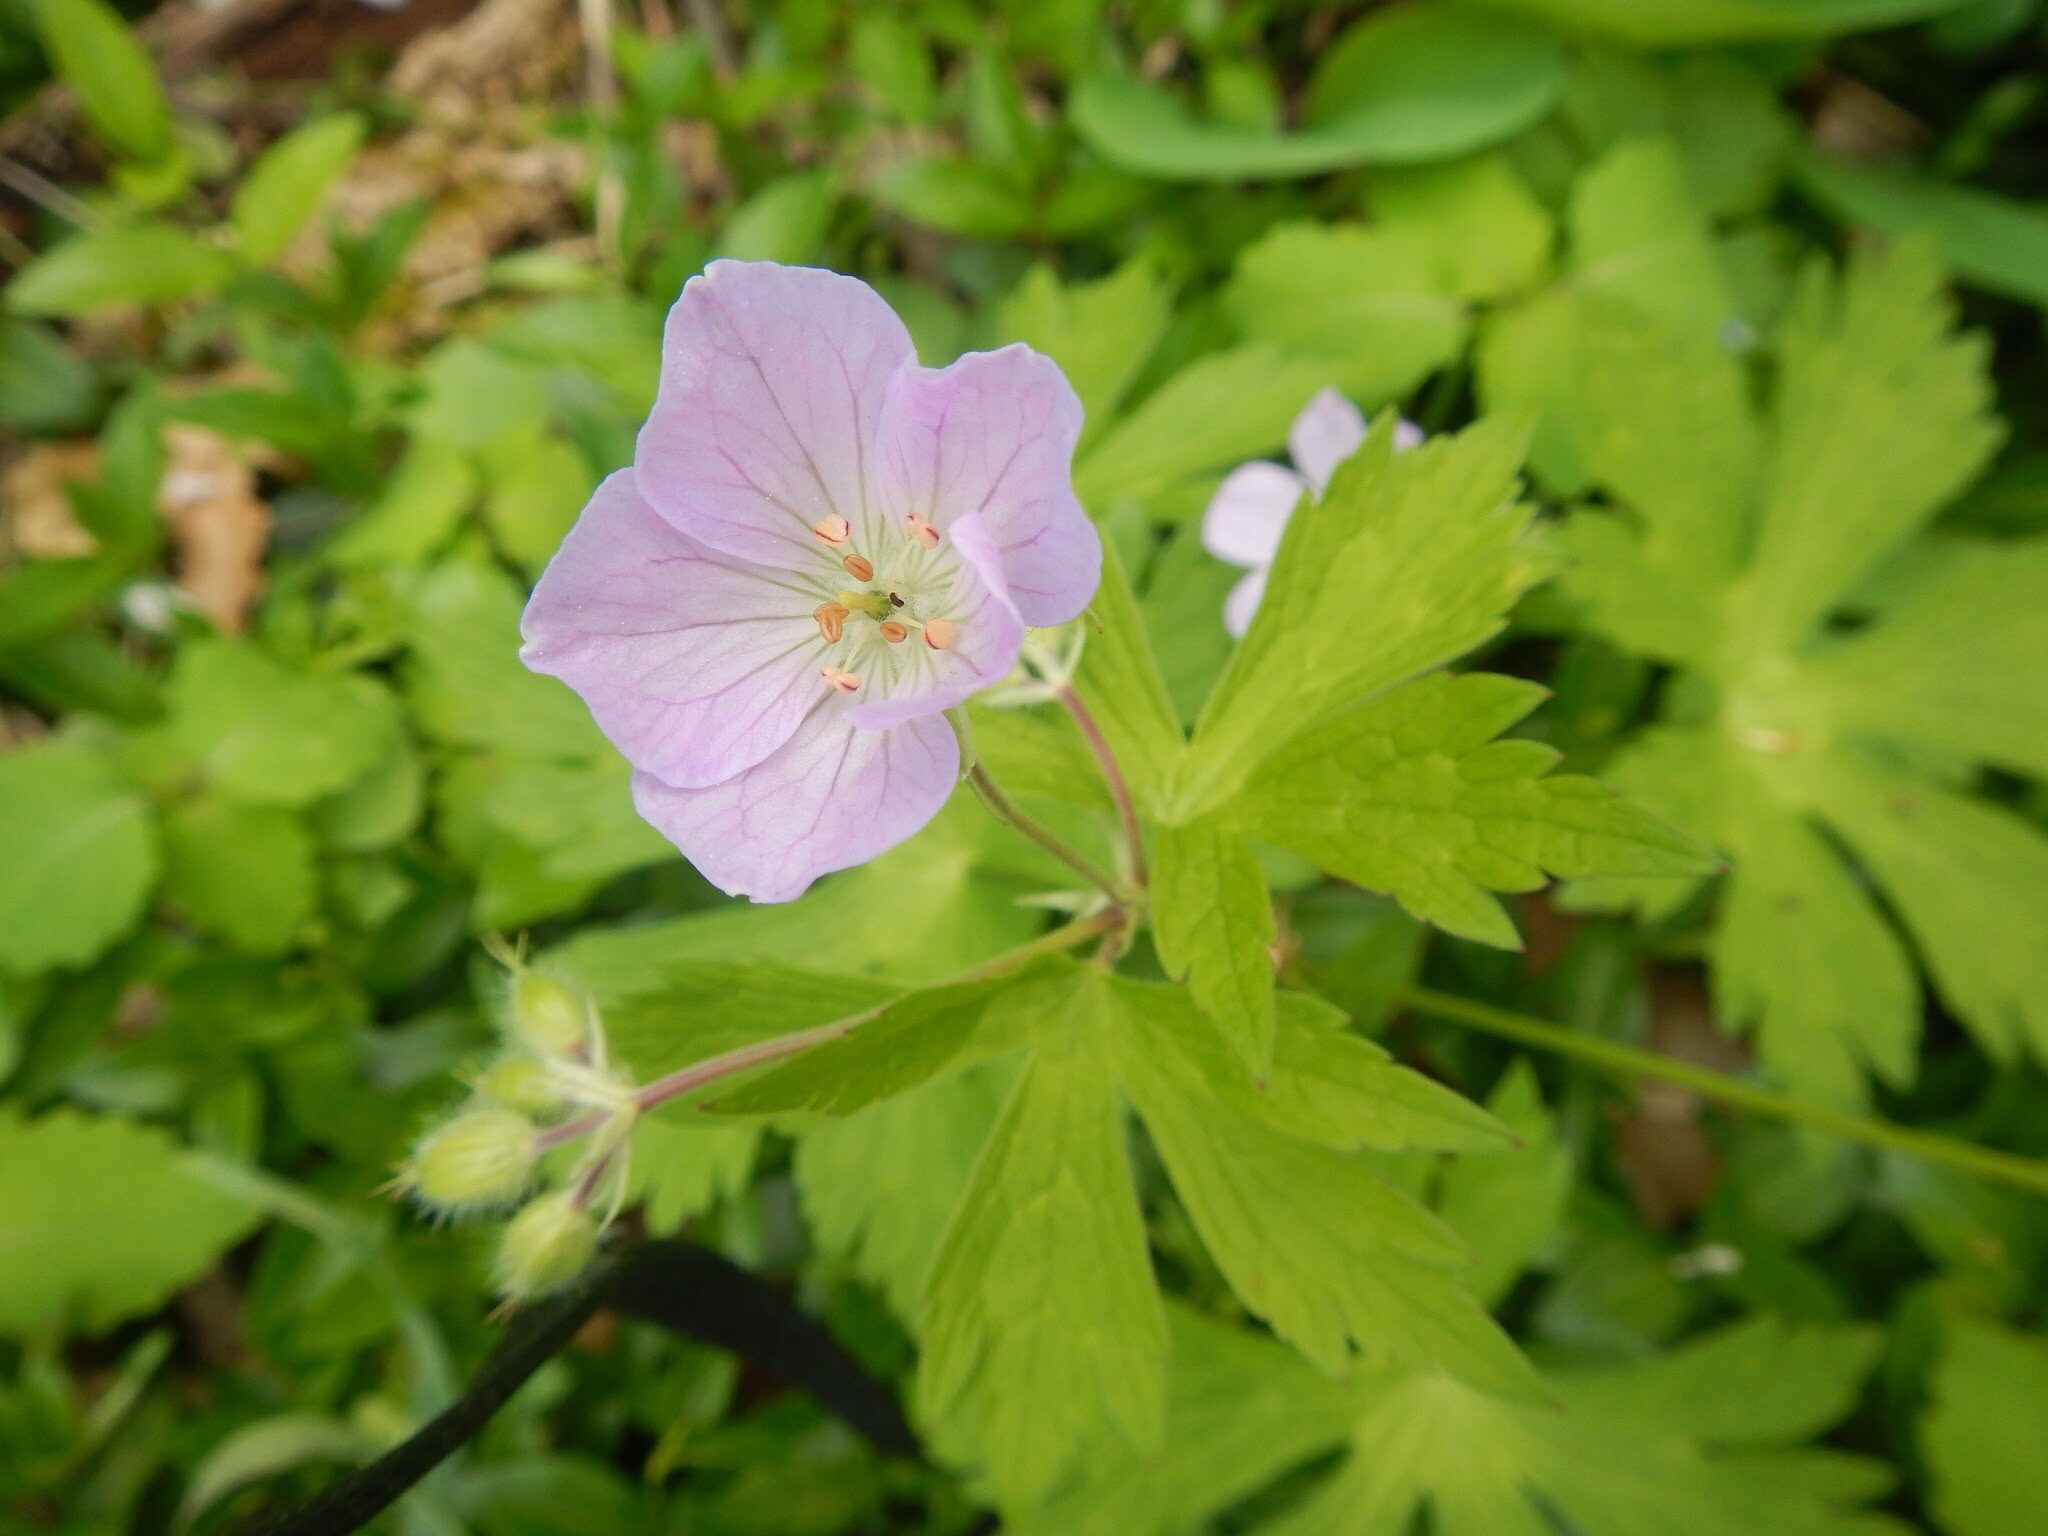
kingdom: Plantae
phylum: Tracheophyta
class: Magnoliopsida
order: Geraniales
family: Geraniaceae
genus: Geranium
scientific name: Geranium maculatum
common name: Spotted geranium
